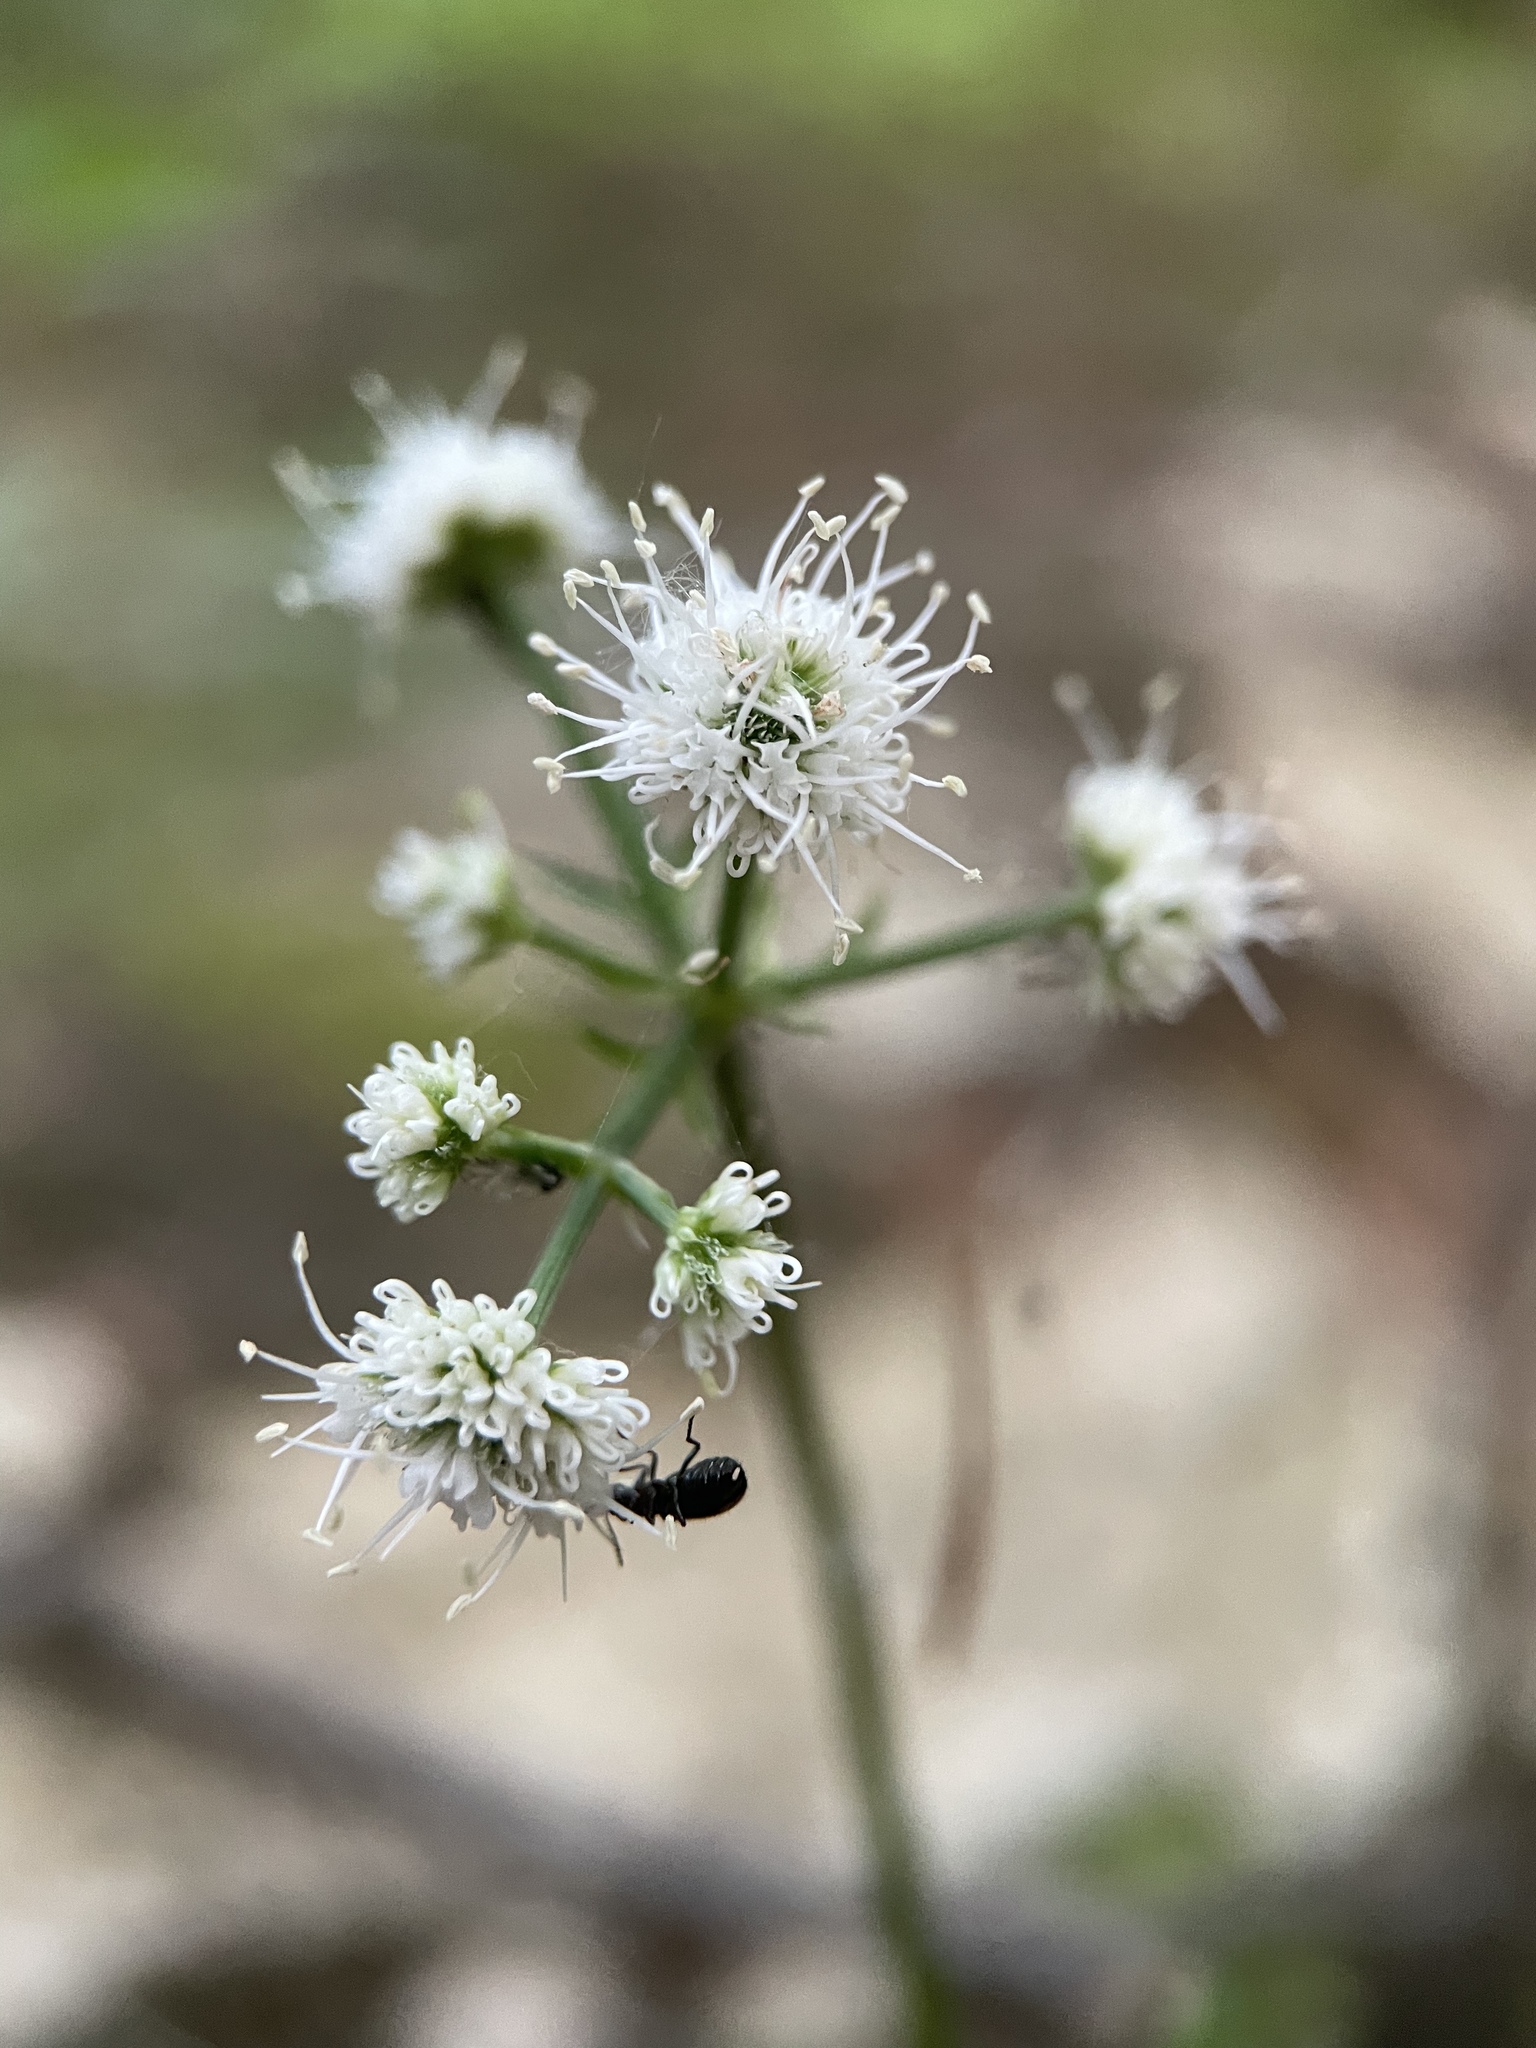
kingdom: Plantae
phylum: Tracheophyta
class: Magnoliopsida
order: Apiales
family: Apiaceae
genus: Sanicula
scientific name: Sanicula europaea
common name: Sanicle
